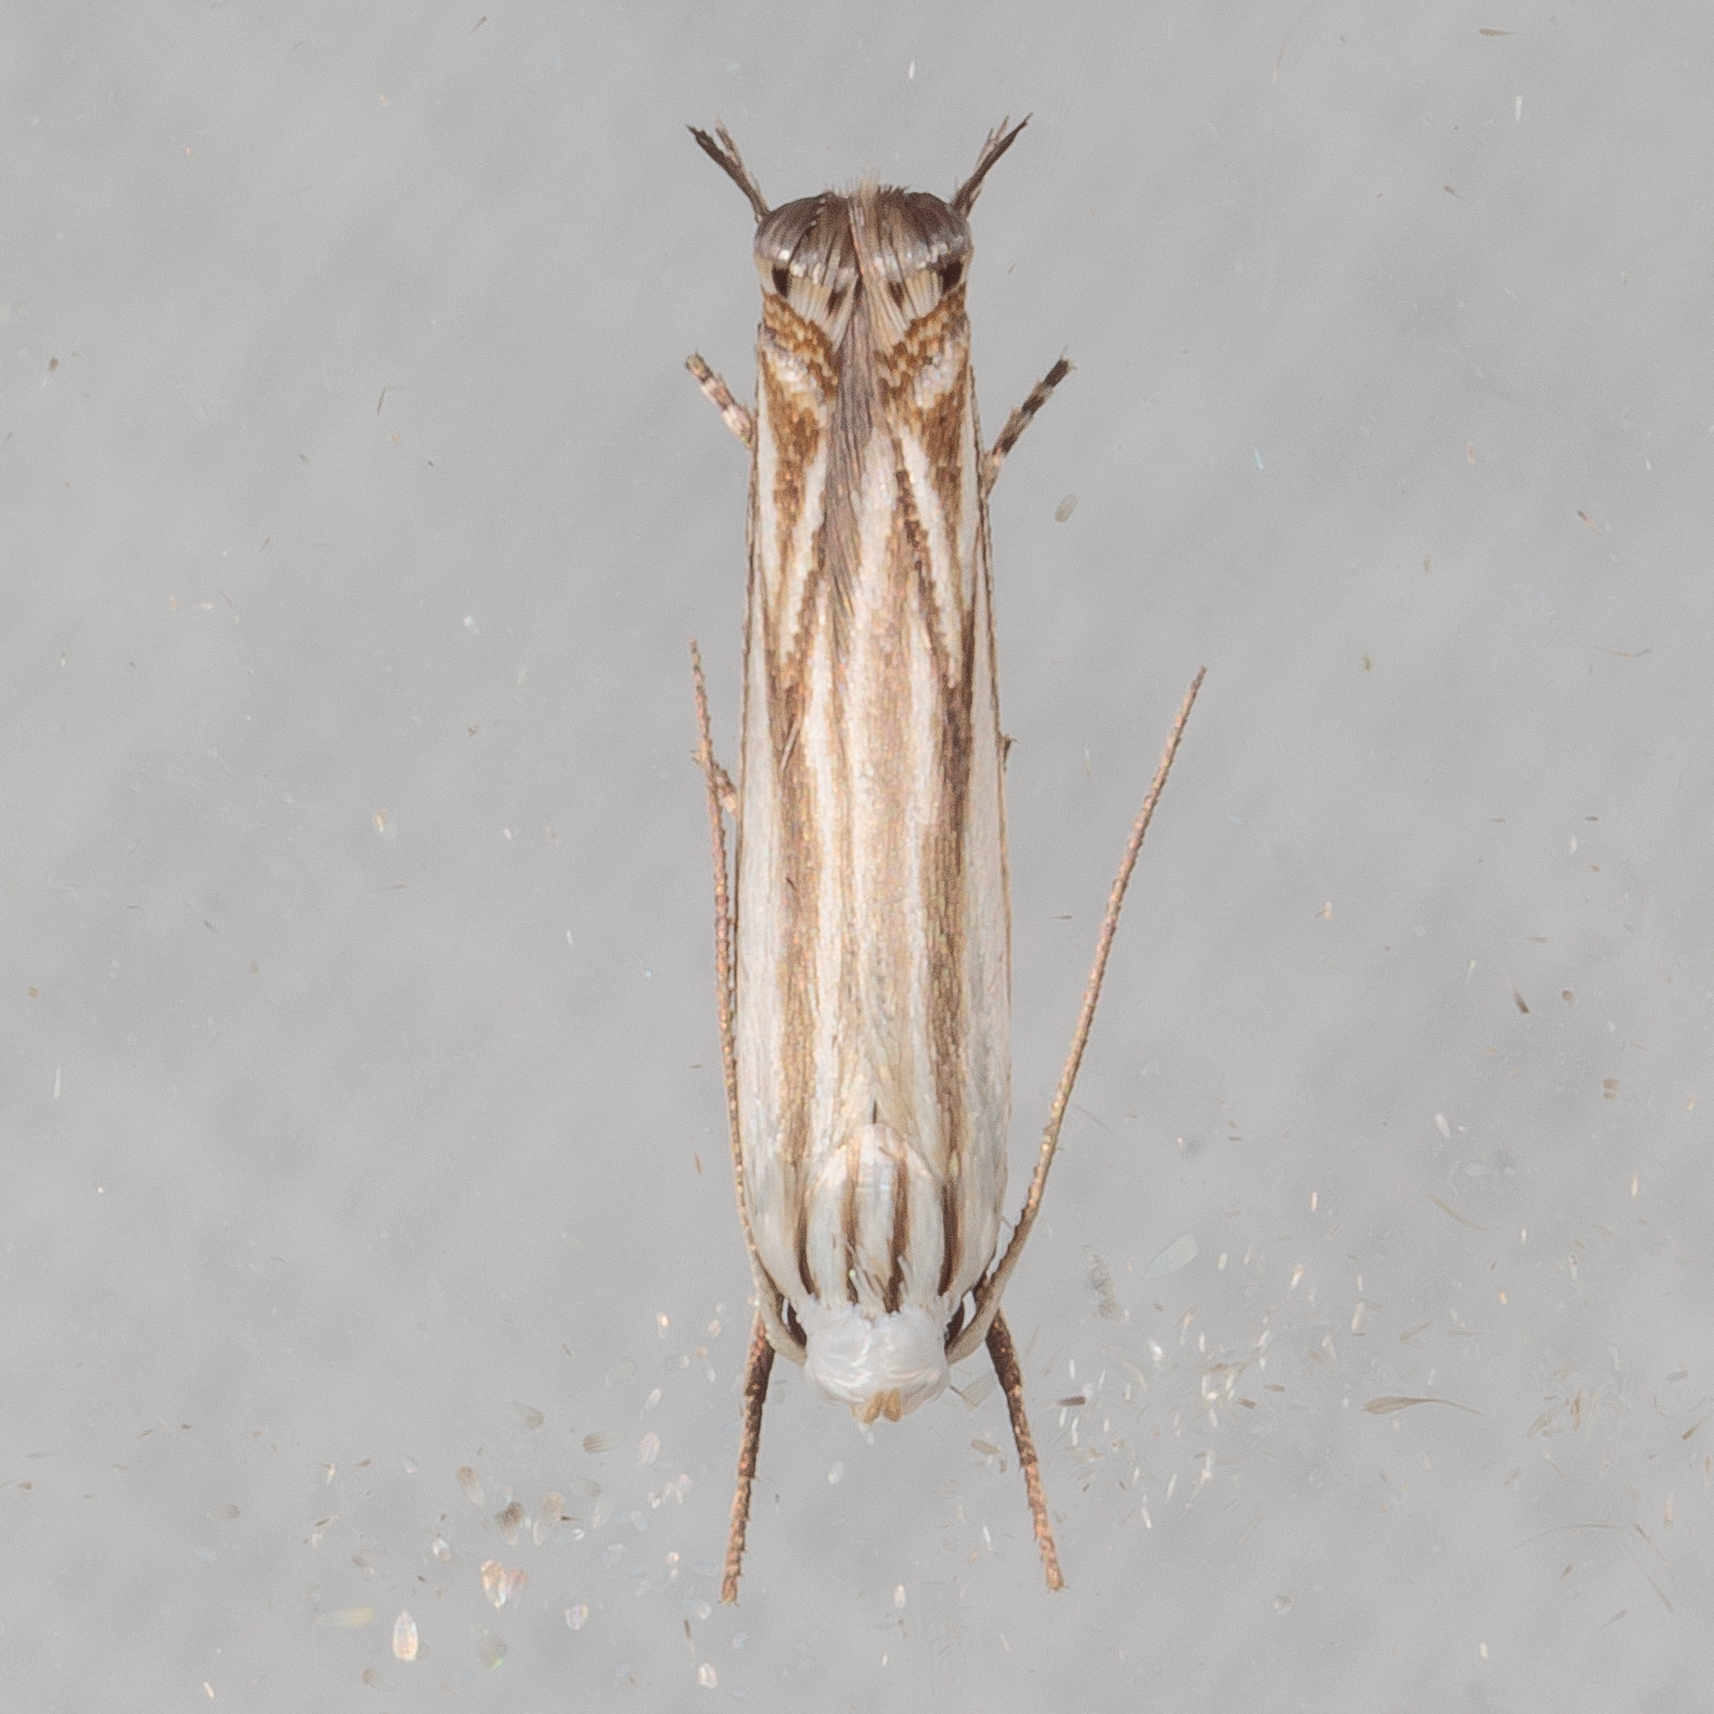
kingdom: Animalia
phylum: Arthropoda
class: Insecta
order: Lepidoptera
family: Gelechiidae
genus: Polyhymno
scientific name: Polyhymno luteostrigella
